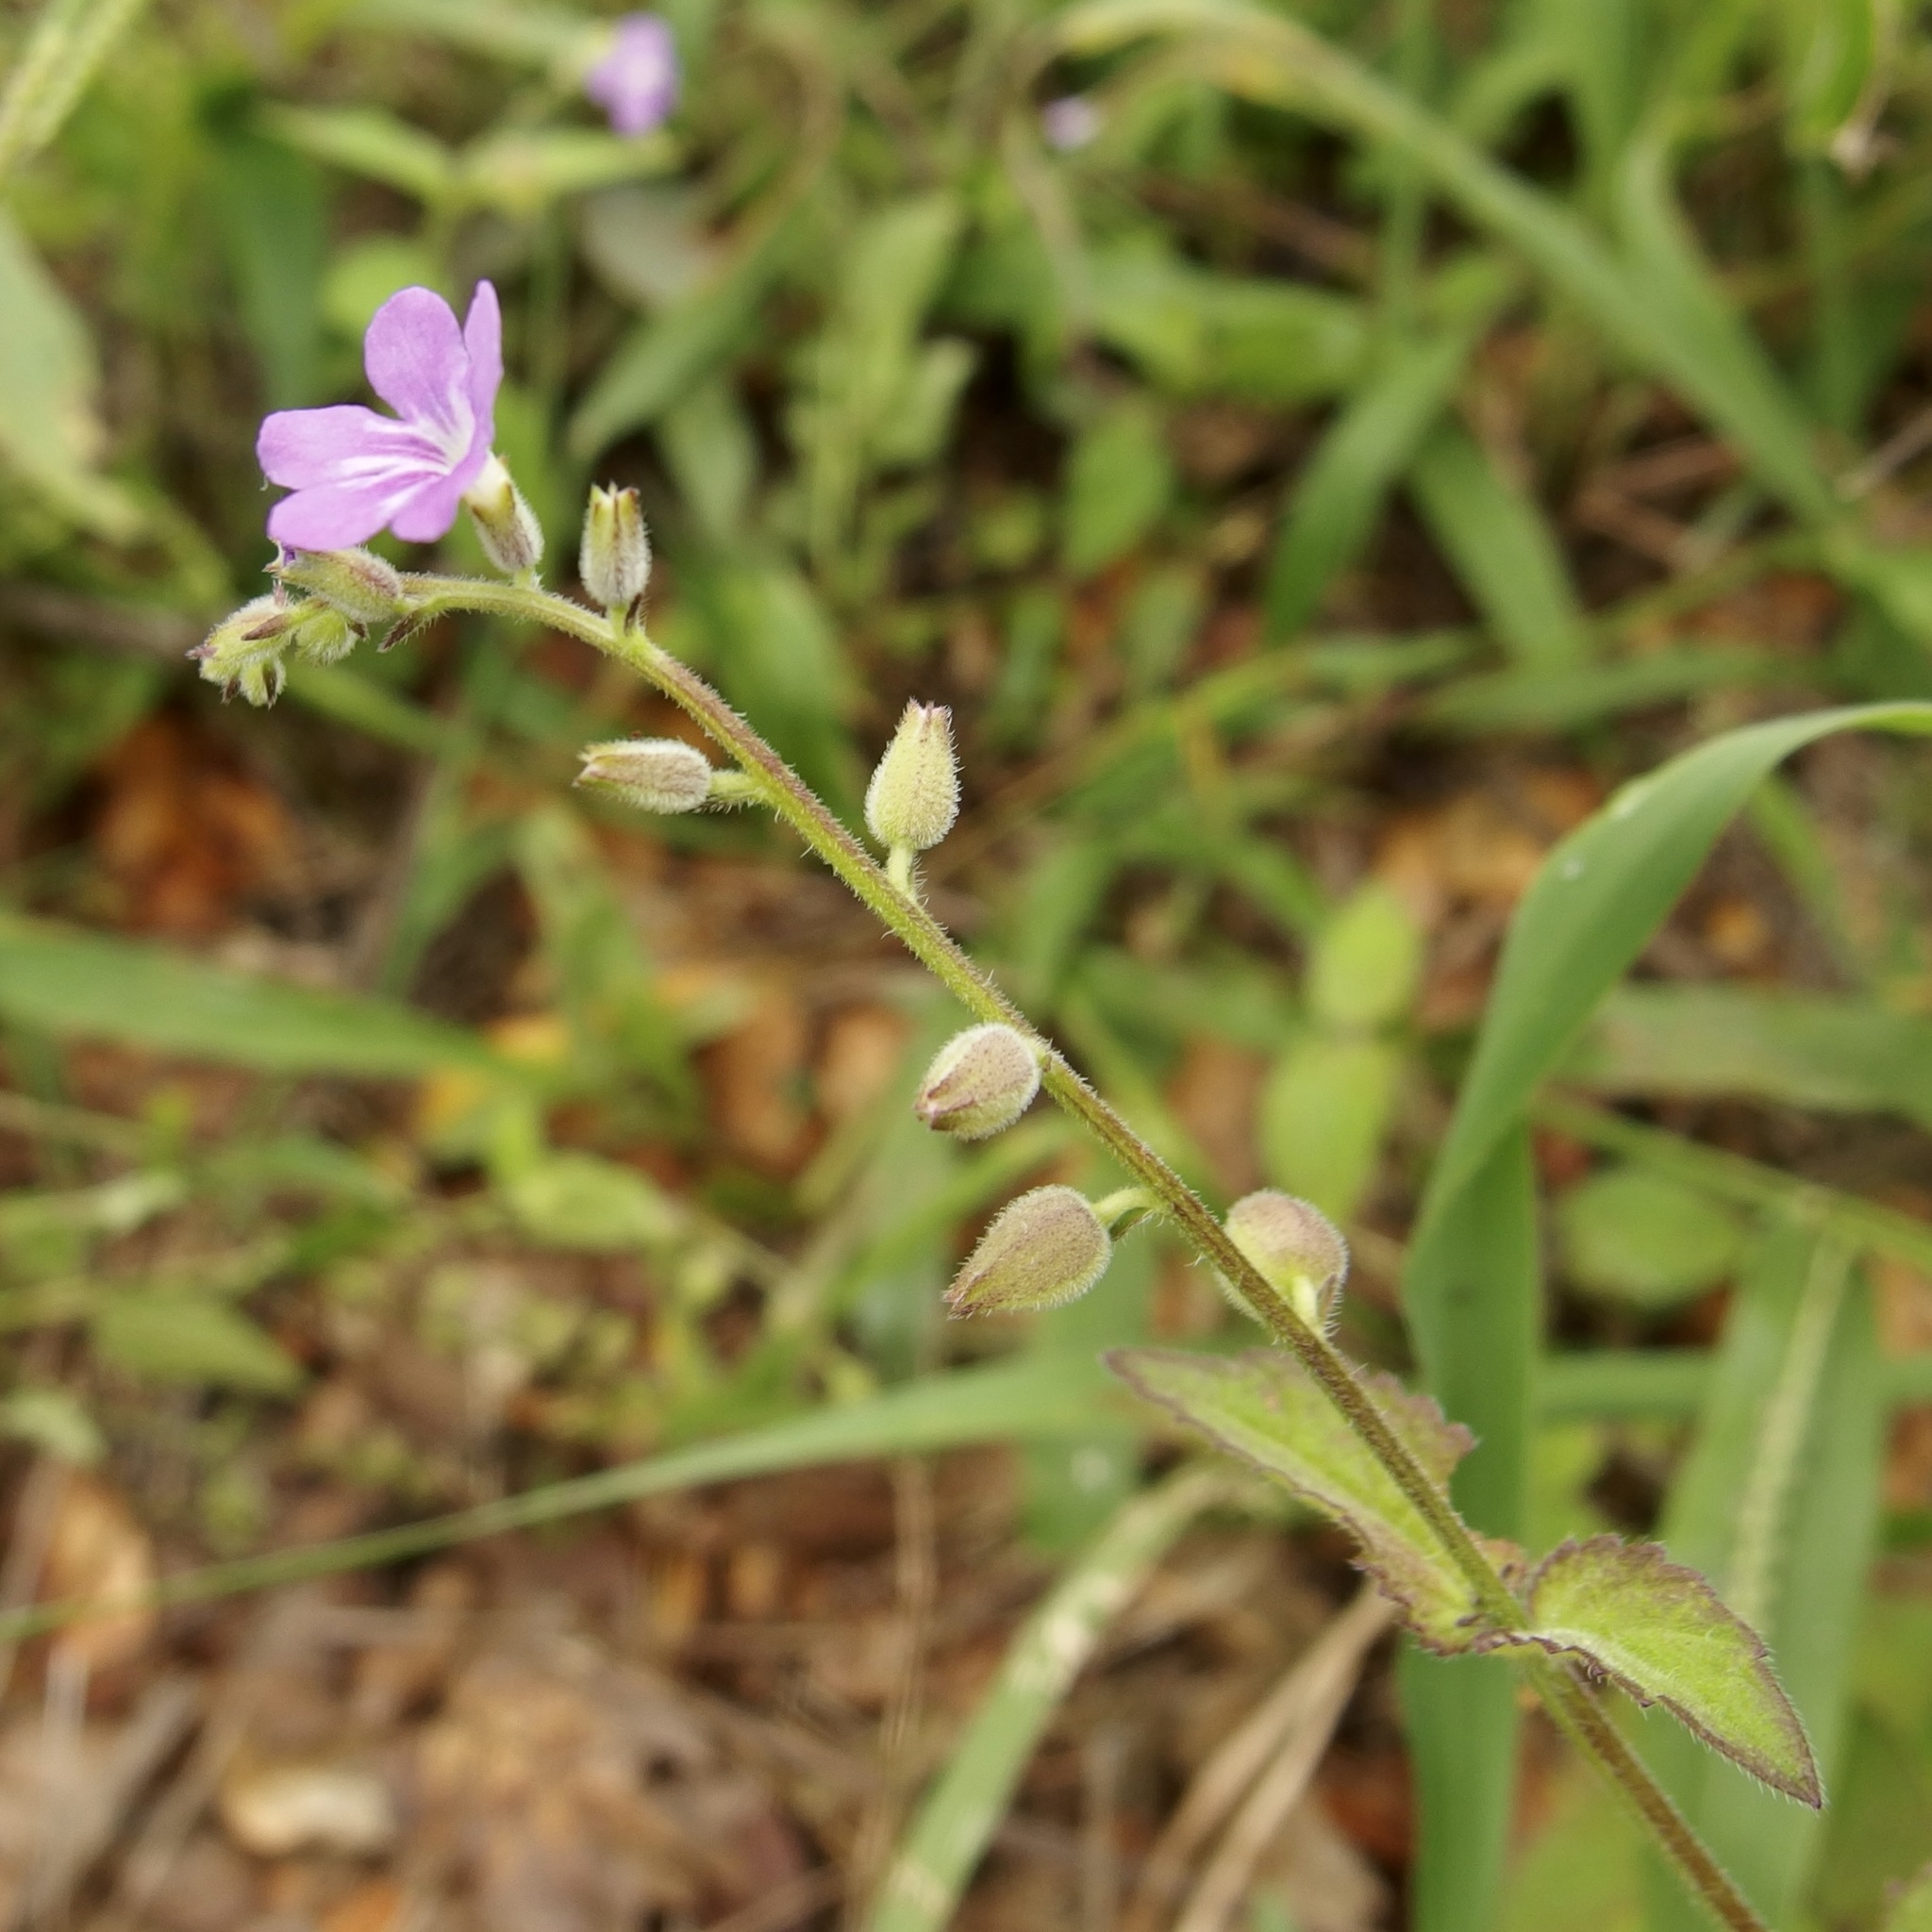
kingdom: Plantae
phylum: Tracheophyta
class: Magnoliopsida
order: Lamiales
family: Verbenaceae
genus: Priva
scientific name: Priva lappulacea
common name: Fasten-'pon-coat
